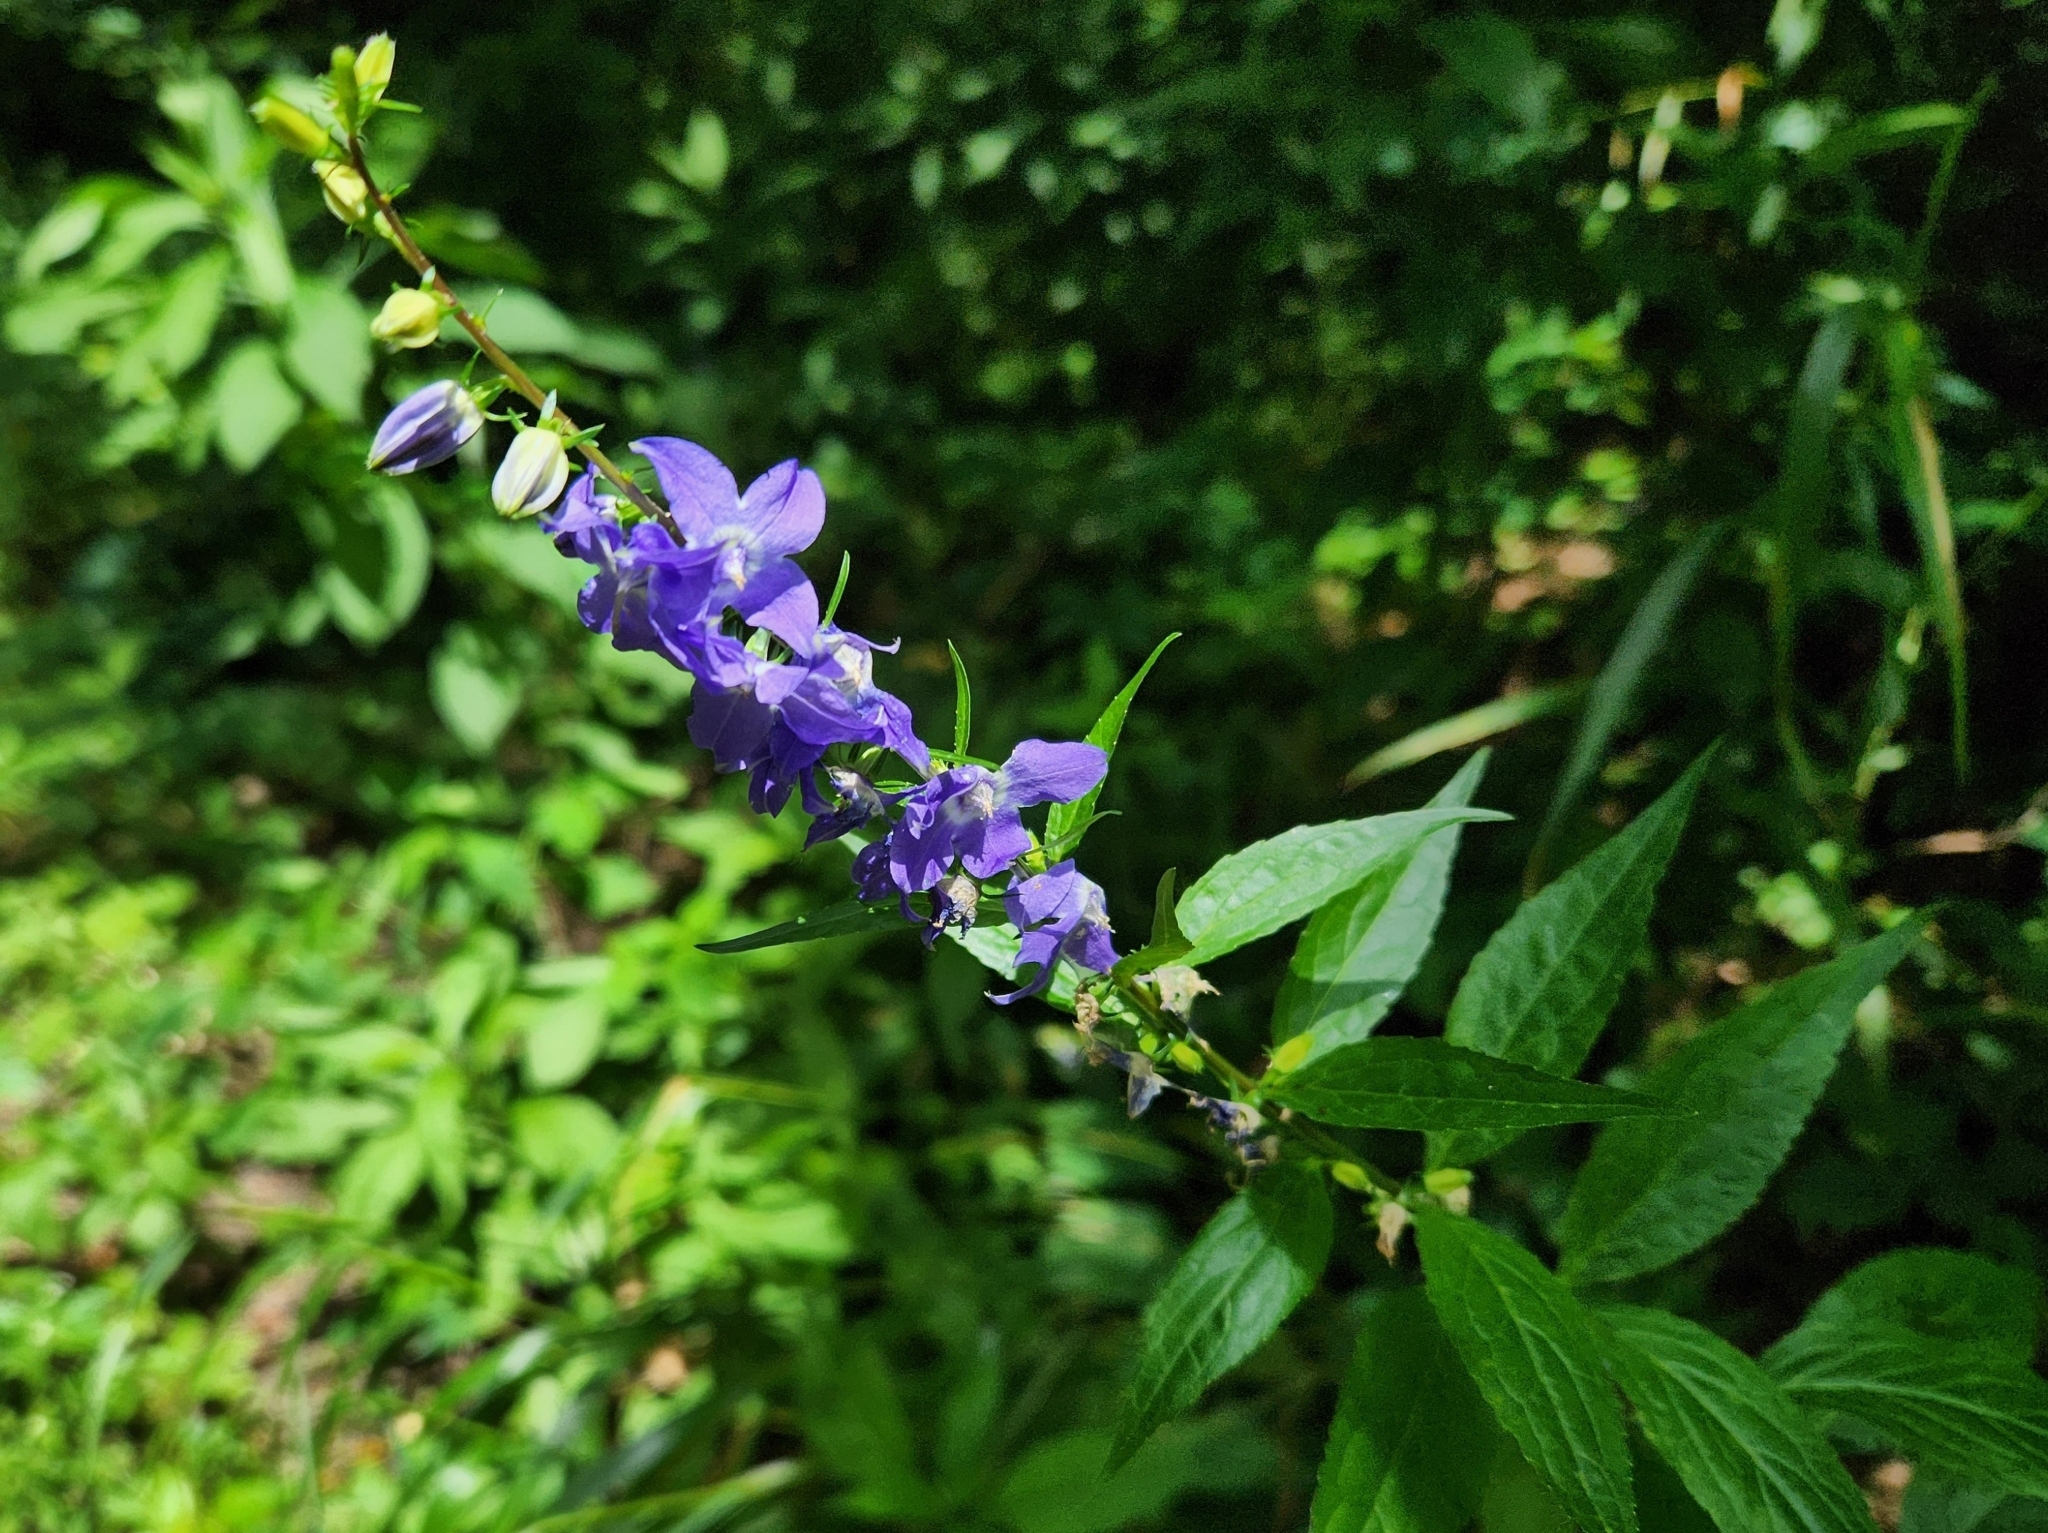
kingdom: Plantae
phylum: Tracheophyta
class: Magnoliopsida
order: Asterales
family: Campanulaceae
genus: Campanulastrum
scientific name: Campanulastrum americanum
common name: American bellflower
